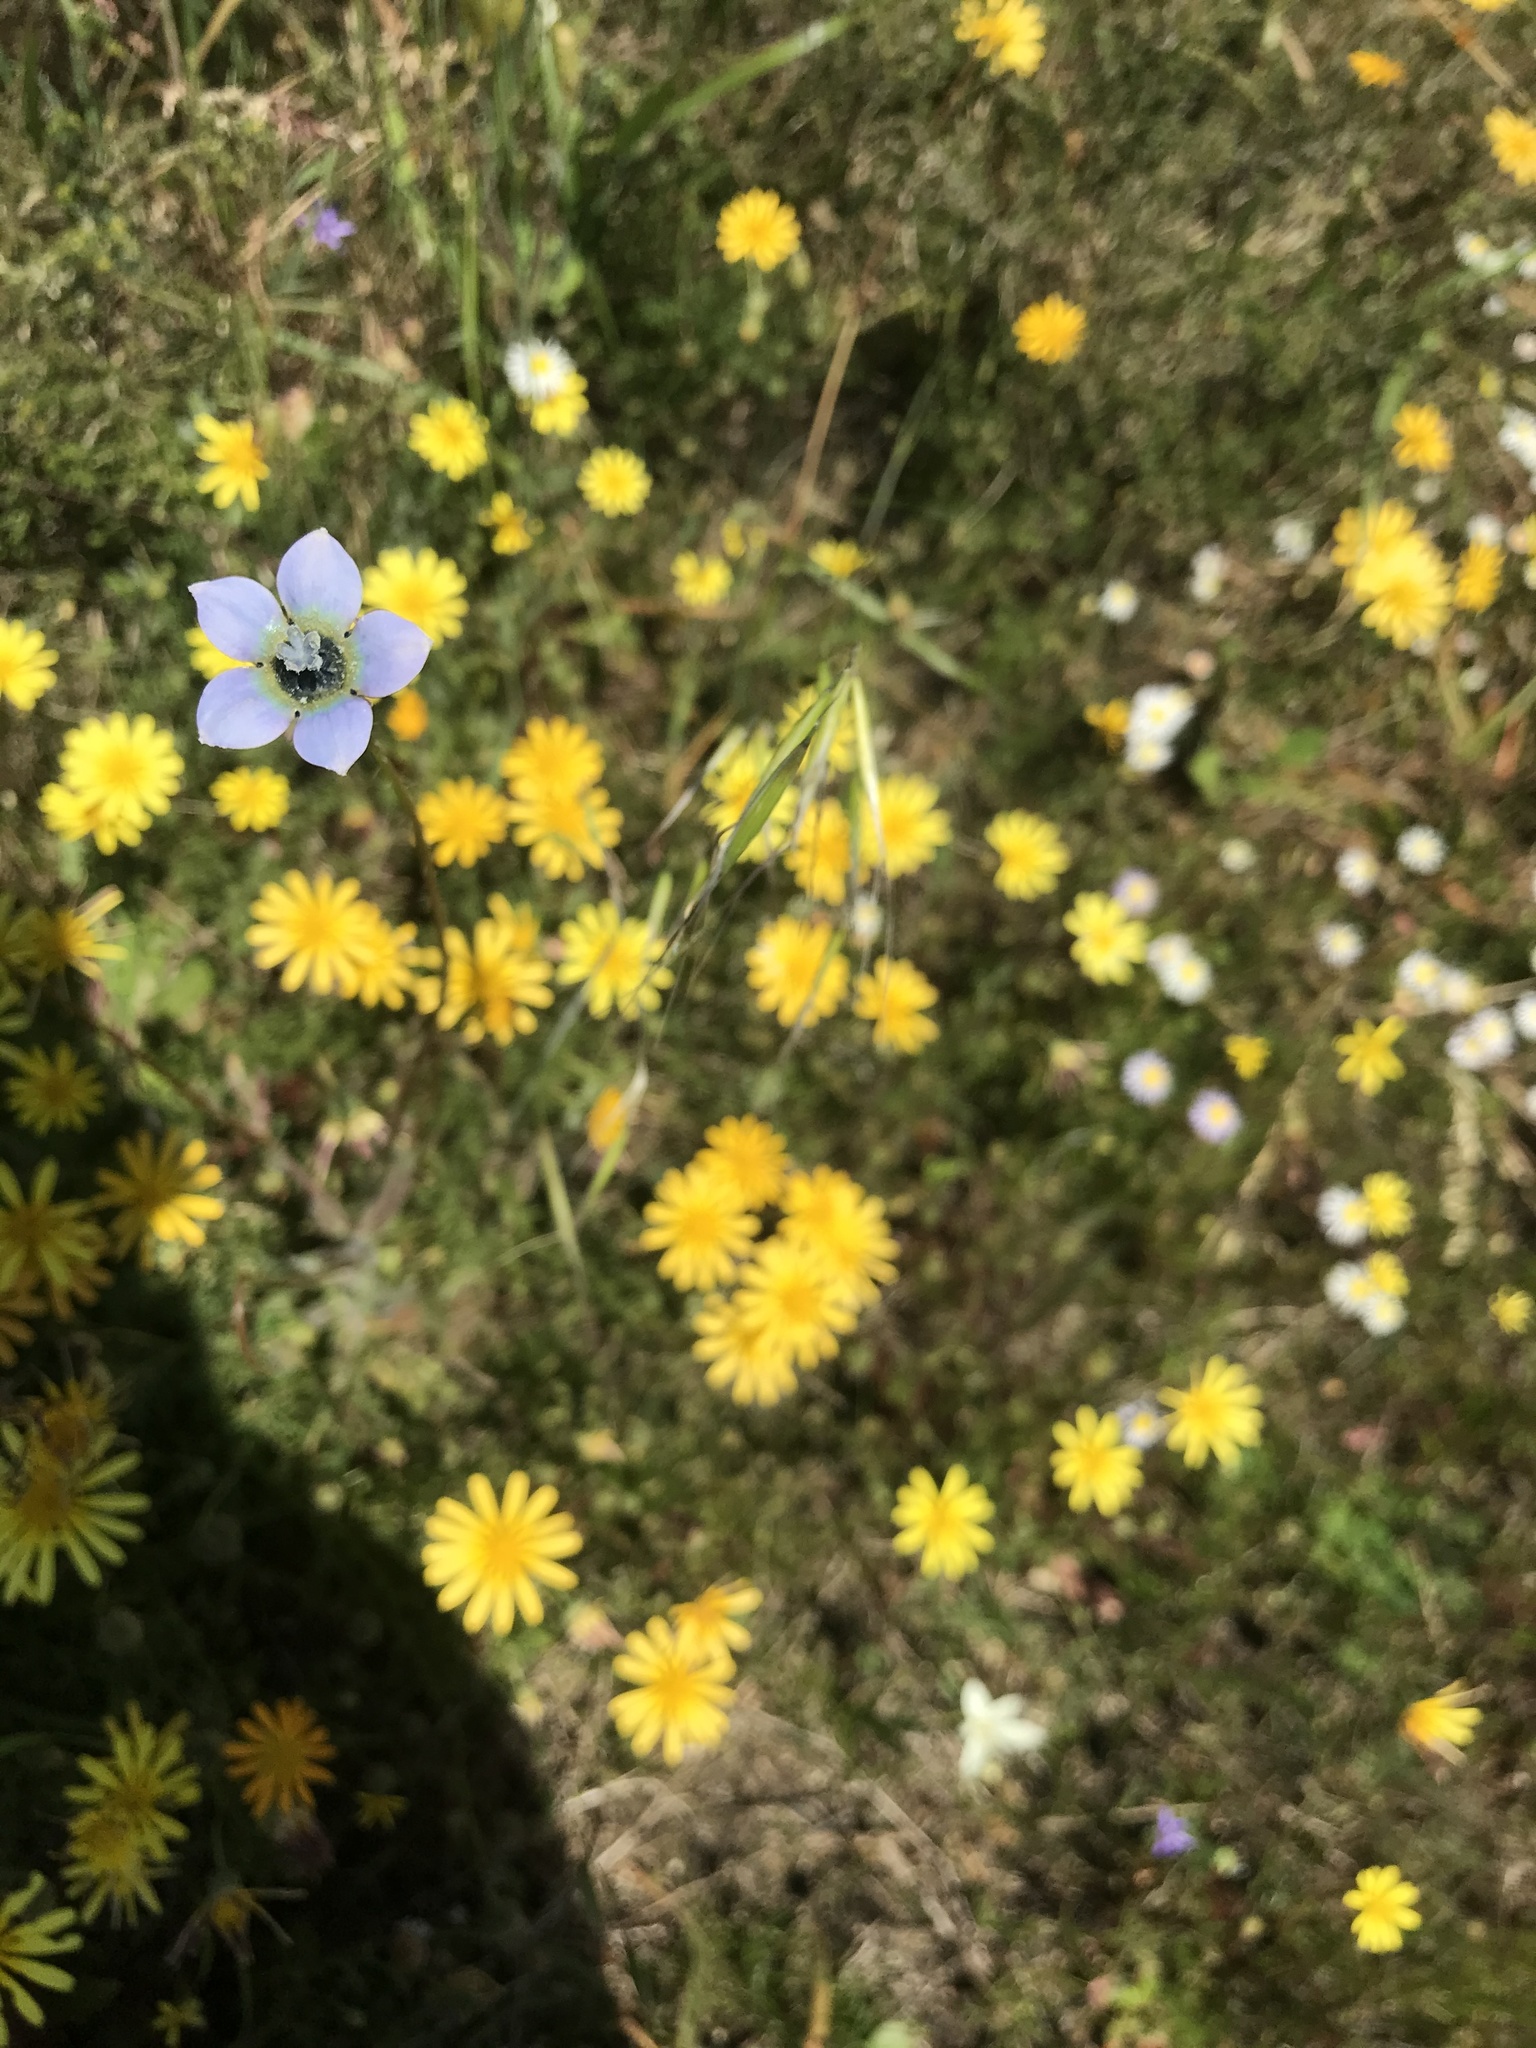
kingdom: Plantae
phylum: Tracheophyta
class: Magnoliopsida
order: Asterales
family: Campanulaceae
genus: Wahlenbergia
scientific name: Wahlenbergia capensis
